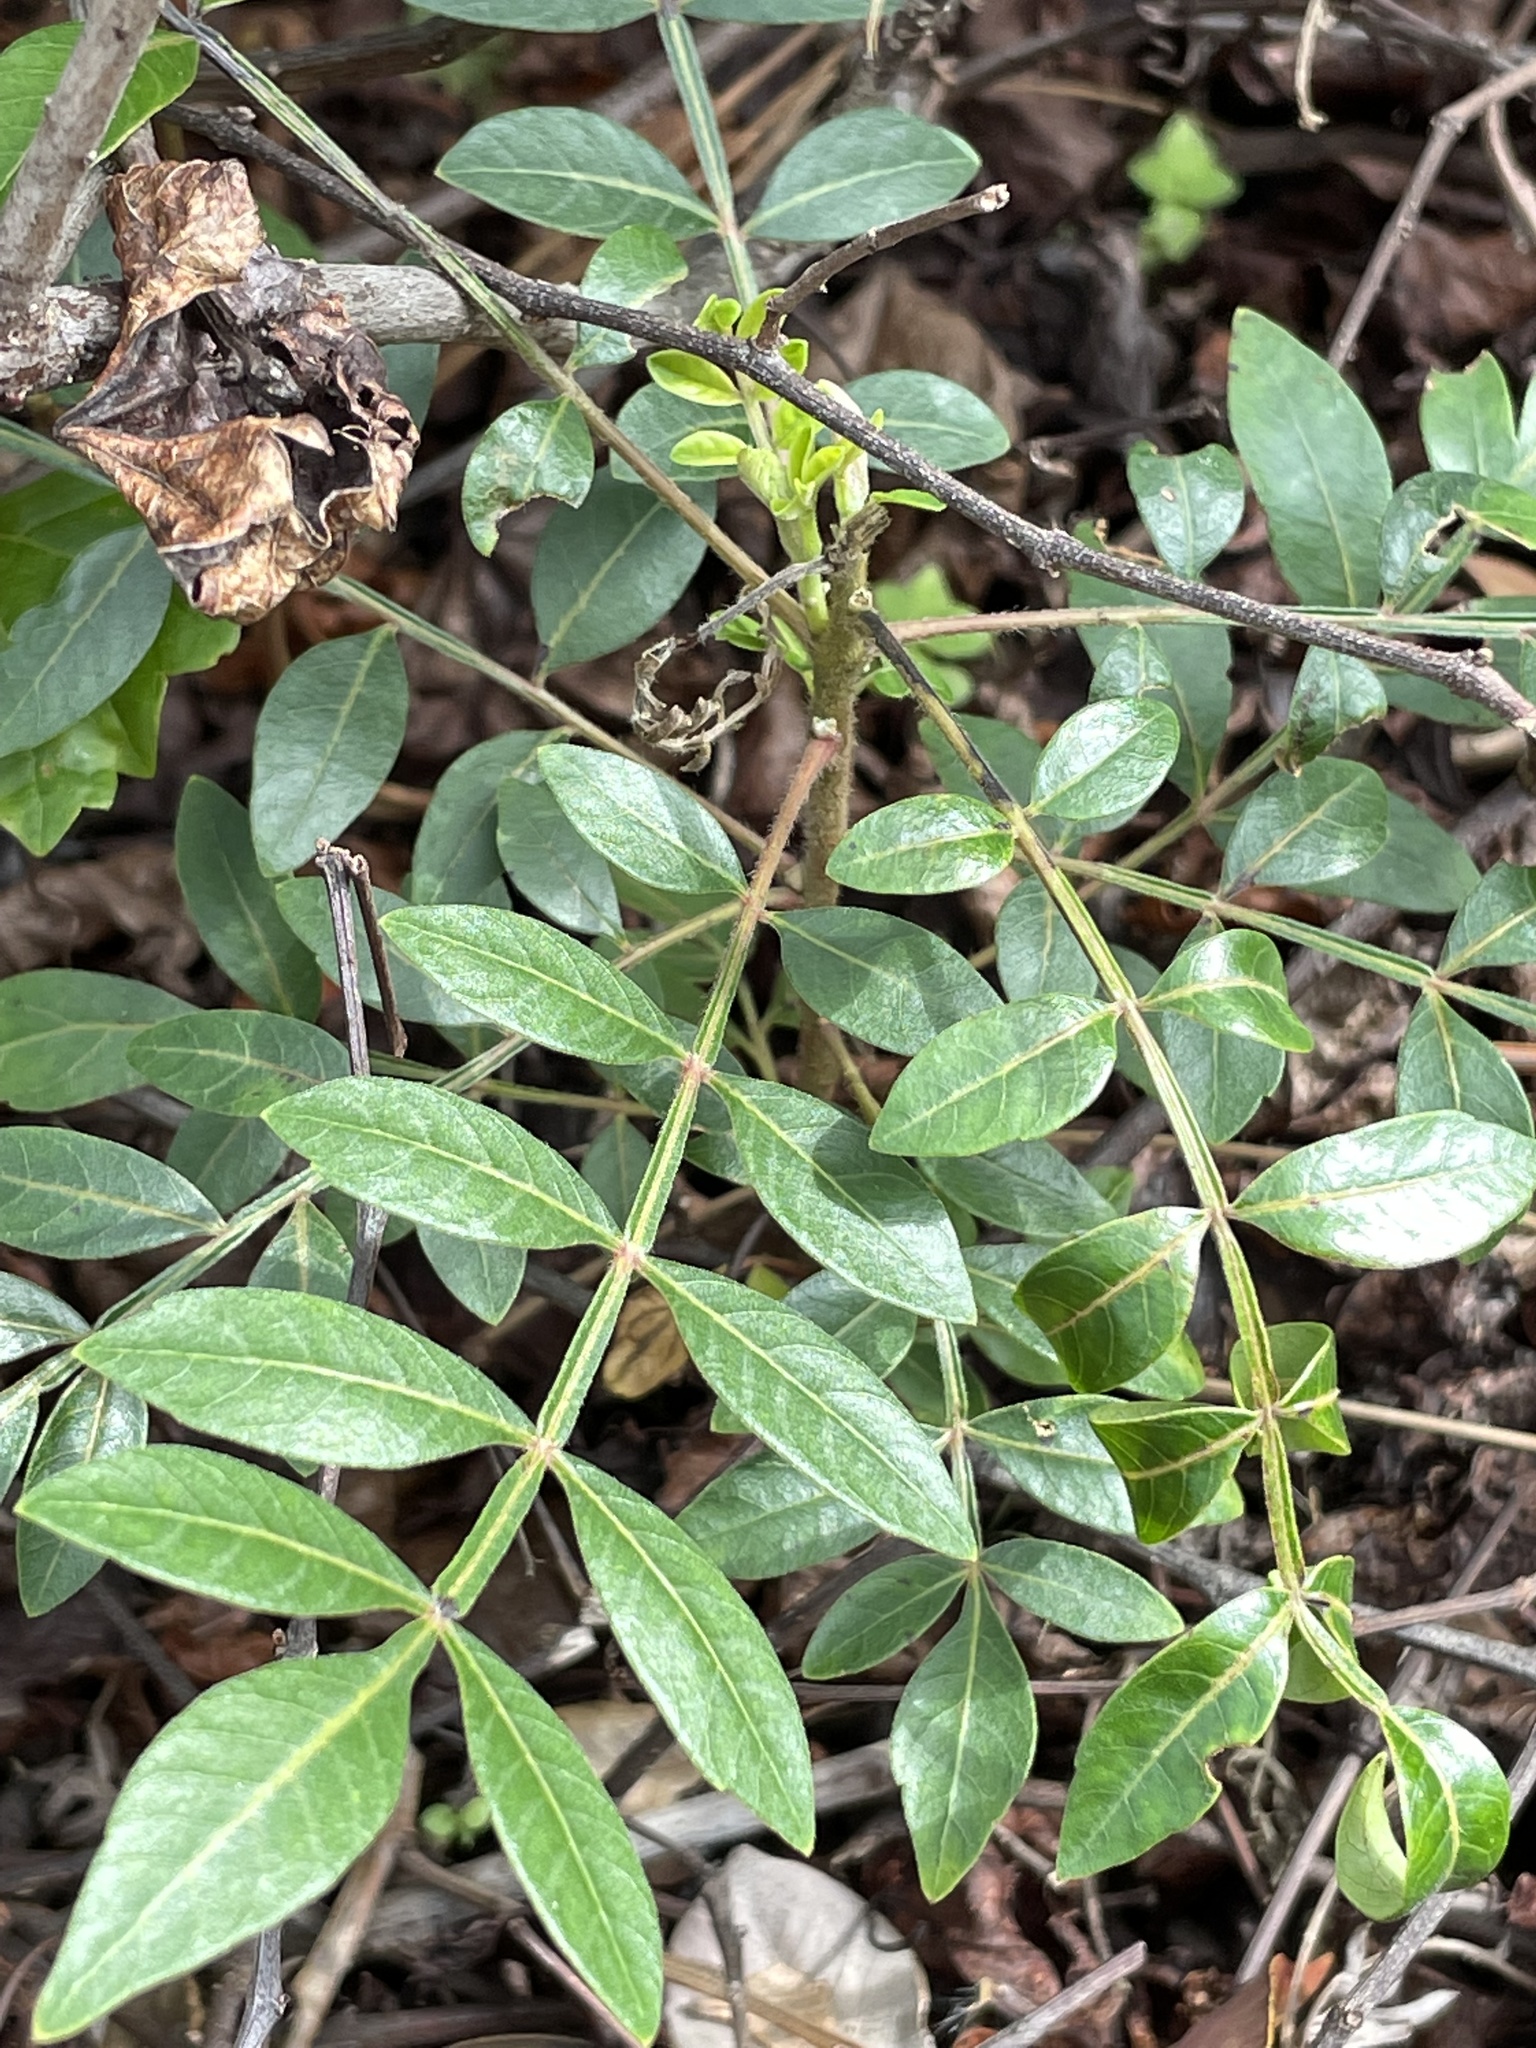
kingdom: Plantae
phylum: Tracheophyta
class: Magnoliopsida
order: Sapindales
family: Anacardiaceae
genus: Rhus
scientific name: Rhus copallina
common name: Shining sumac
